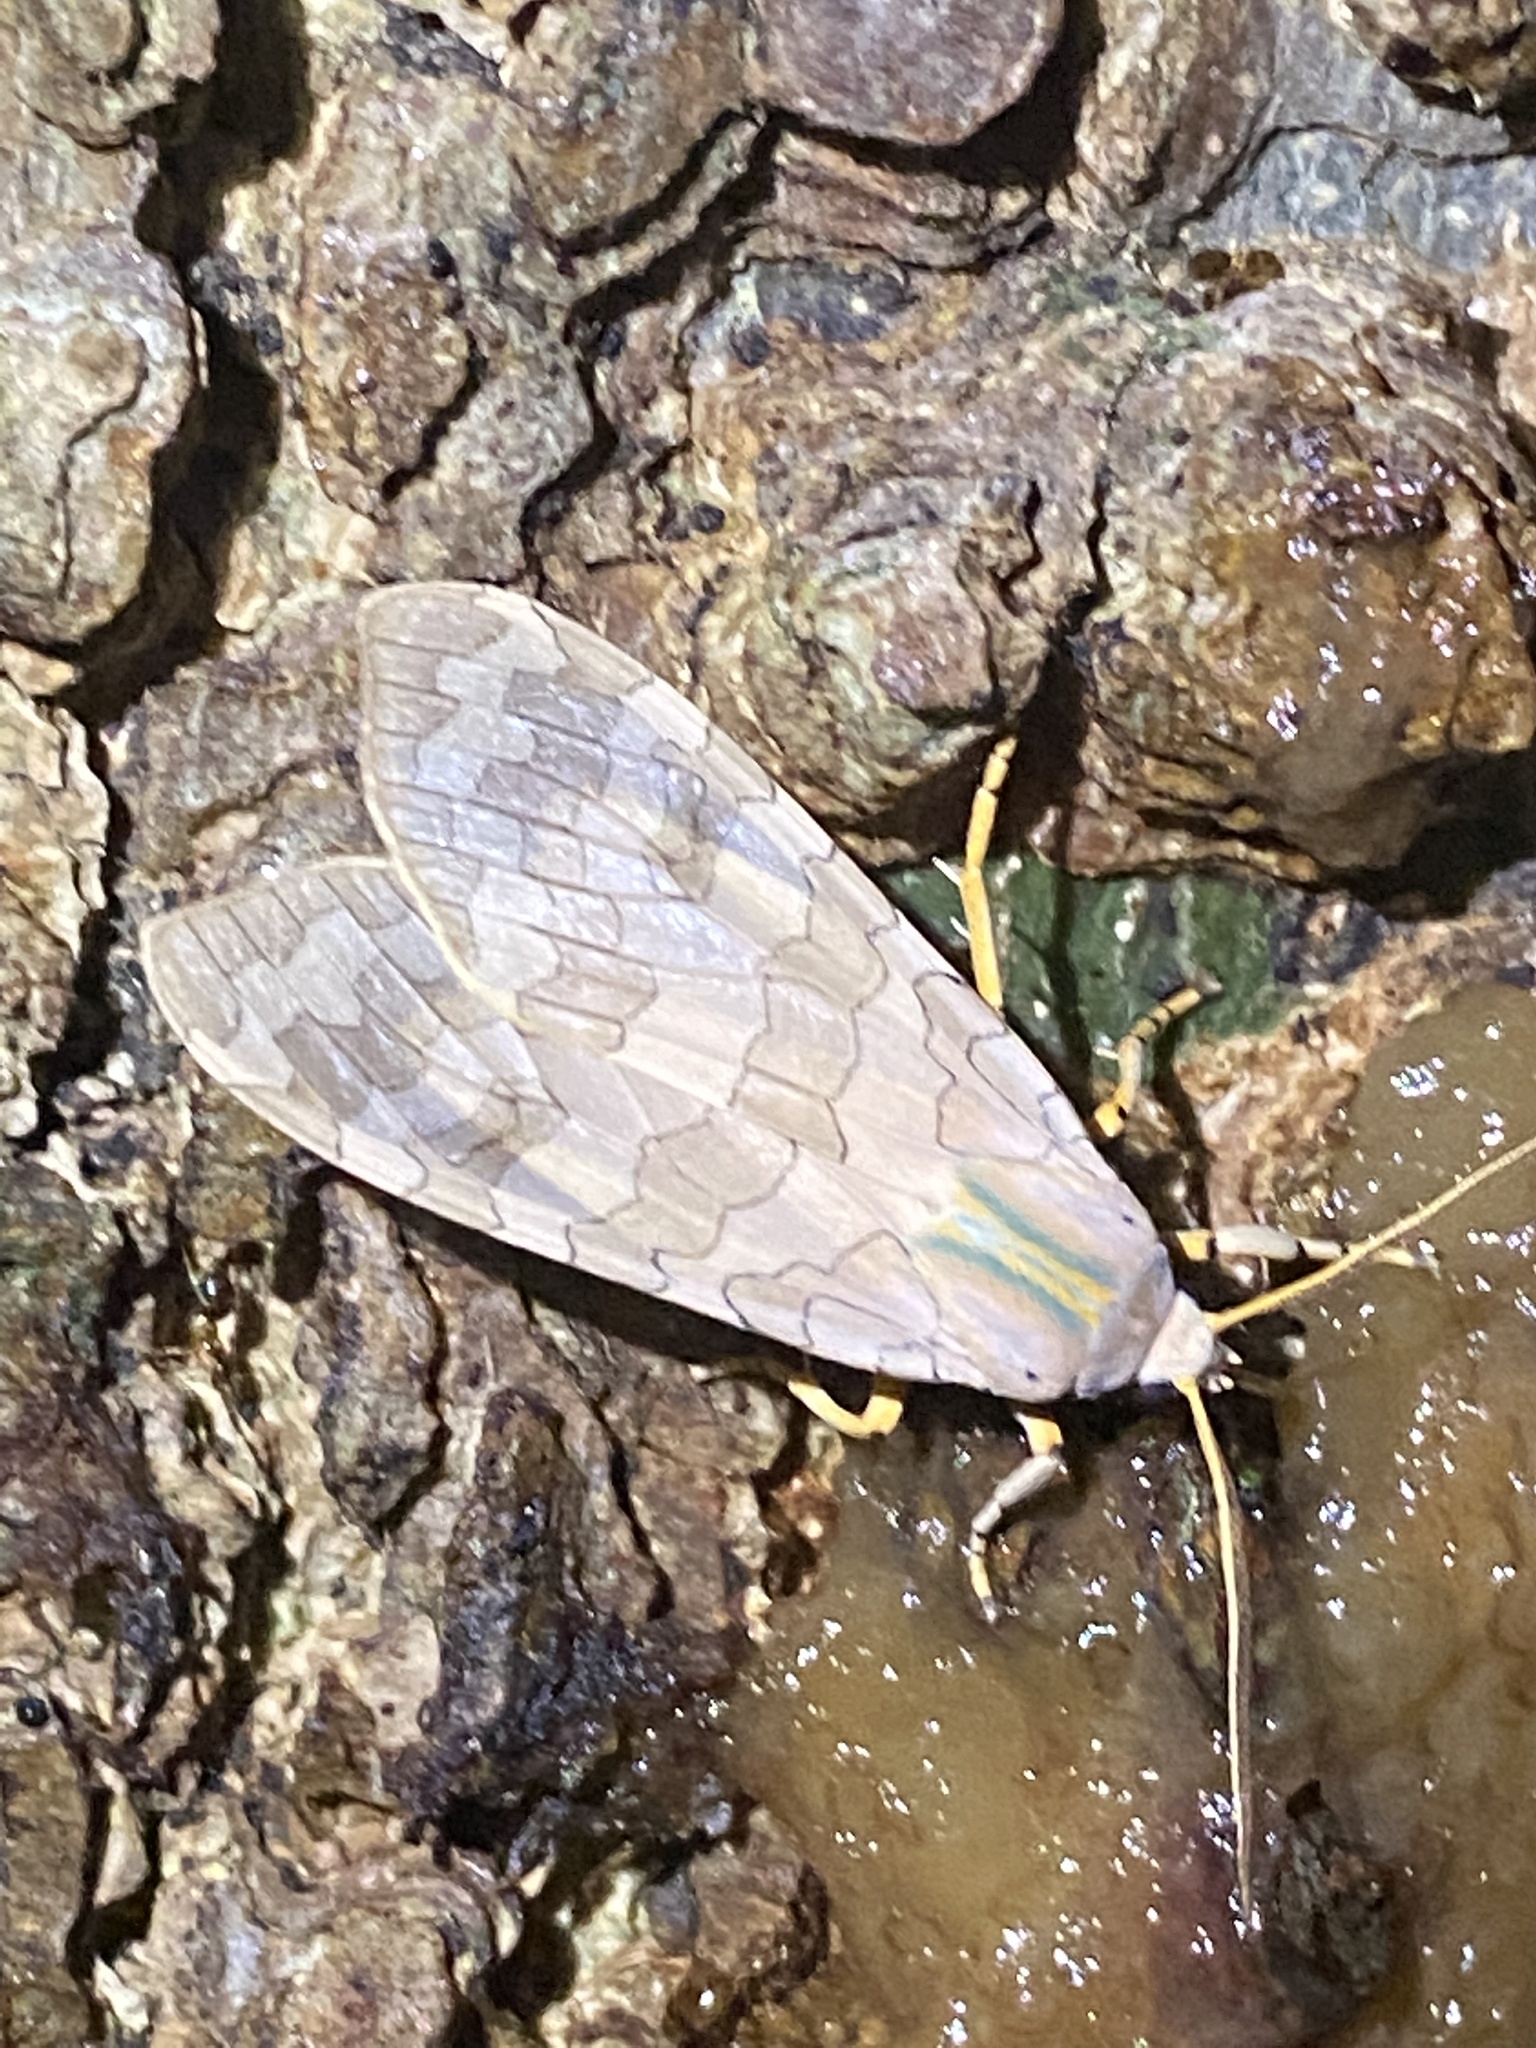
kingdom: Animalia
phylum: Arthropoda
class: Insecta
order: Lepidoptera
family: Erebidae
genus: Halysidota
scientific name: Halysidota
